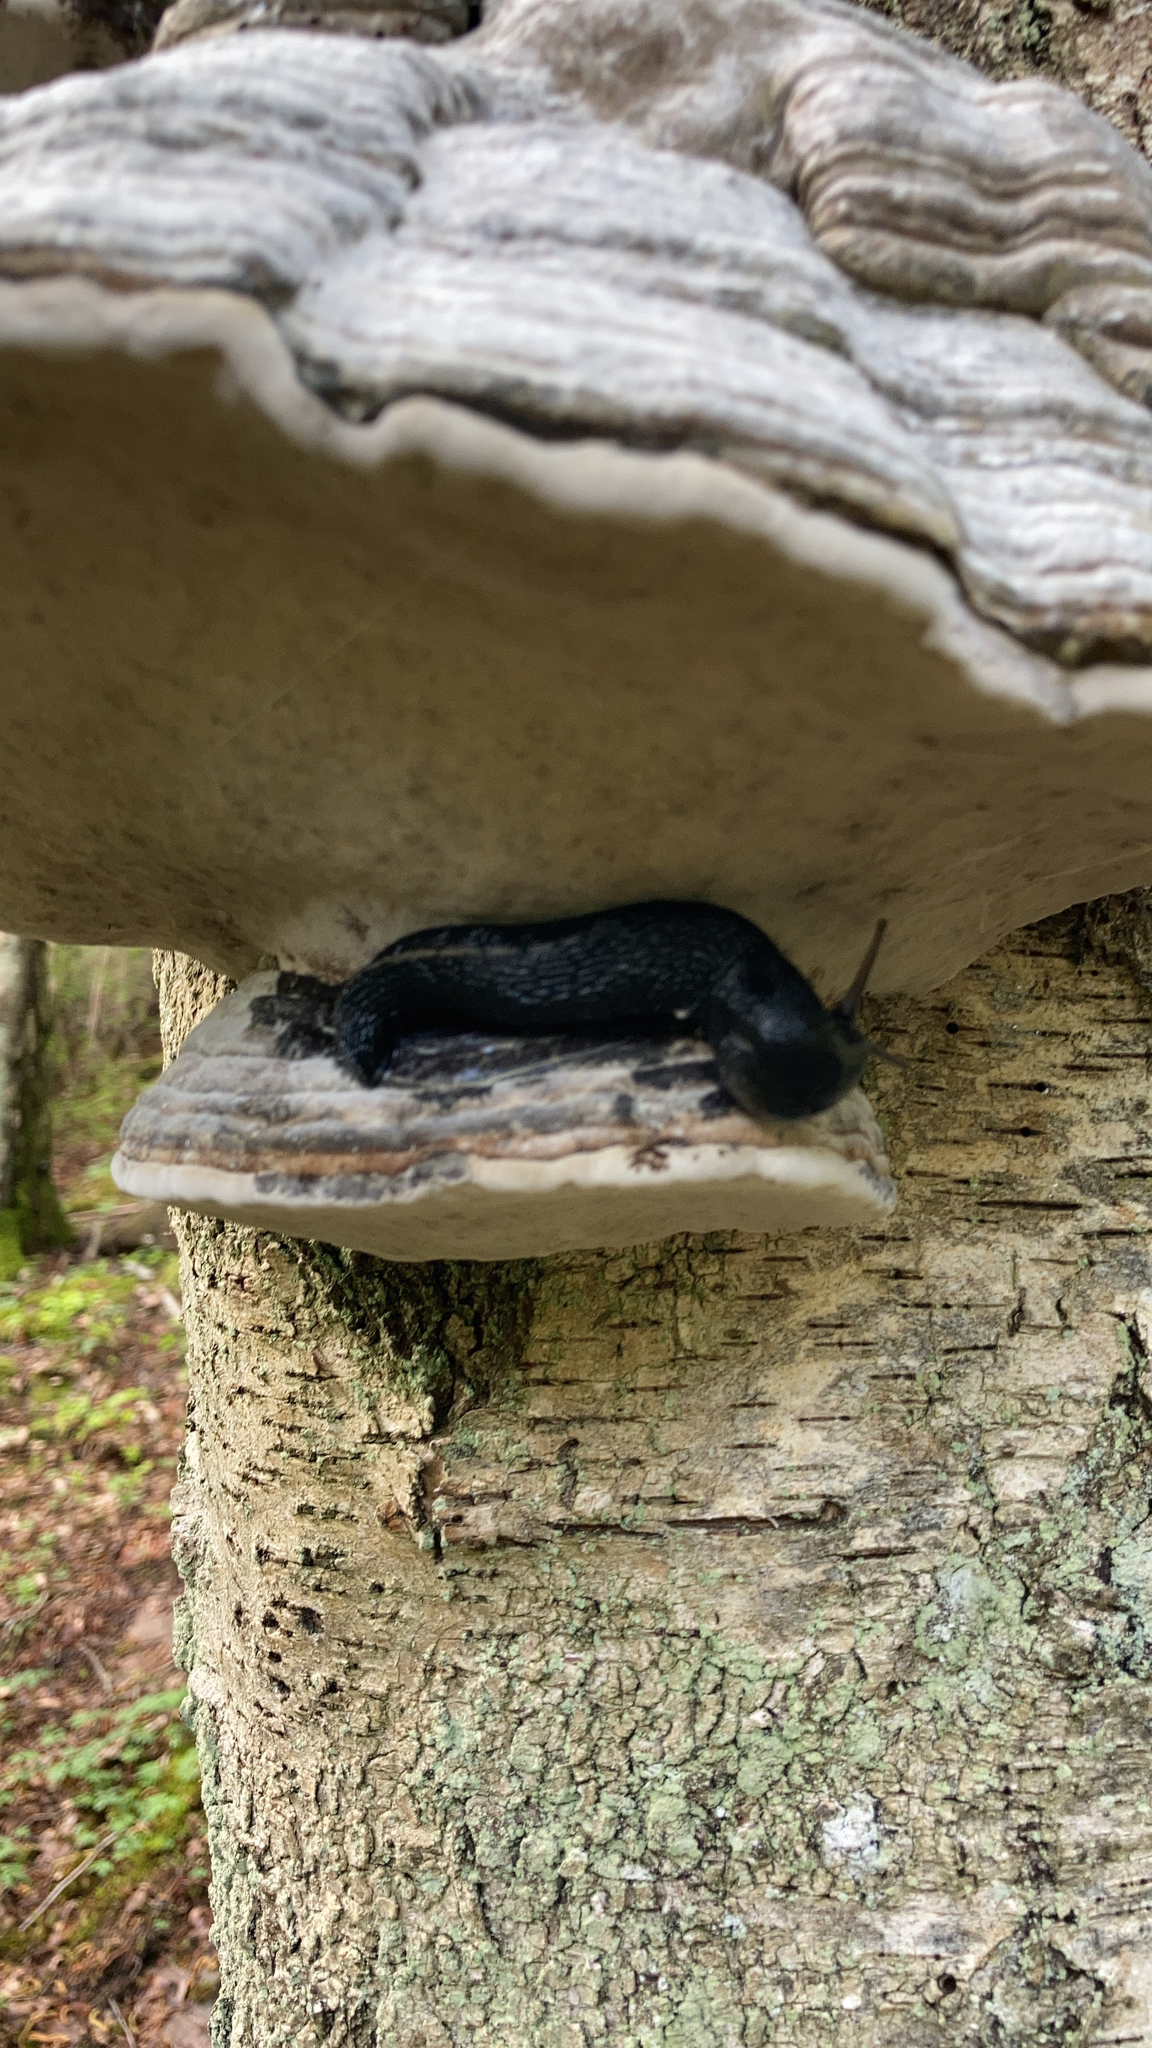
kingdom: Animalia
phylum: Mollusca
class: Gastropoda
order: Stylommatophora
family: Limacidae
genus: Limax
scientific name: Limax cinereoniger
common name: Ash-black slug
